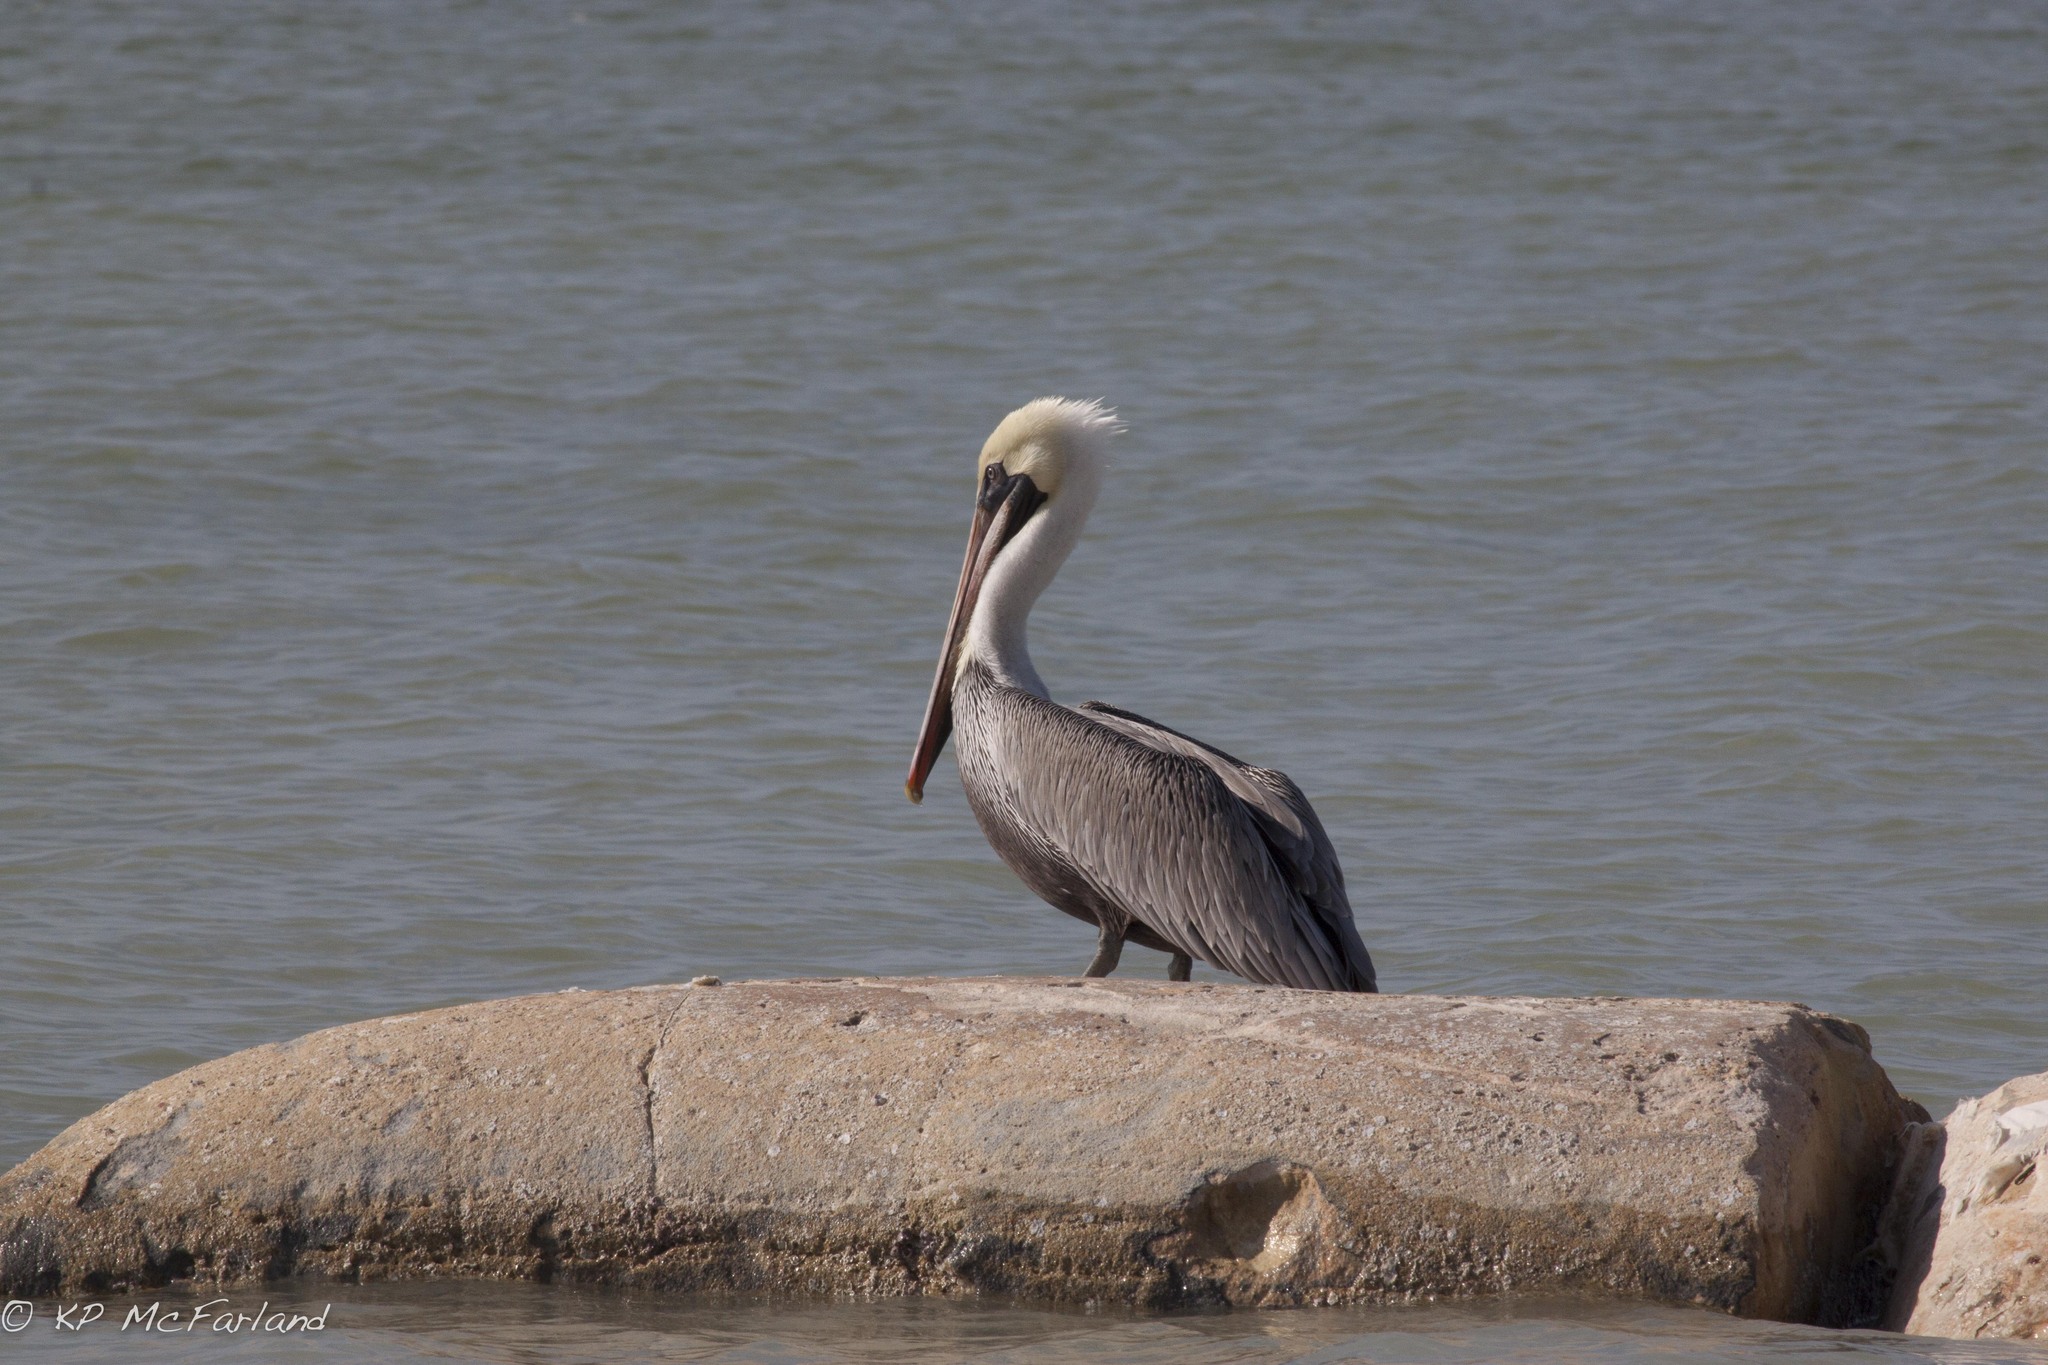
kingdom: Animalia
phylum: Chordata
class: Aves
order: Pelecaniformes
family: Pelecanidae
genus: Pelecanus
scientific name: Pelecanus occidentalis
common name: Brown pelican
